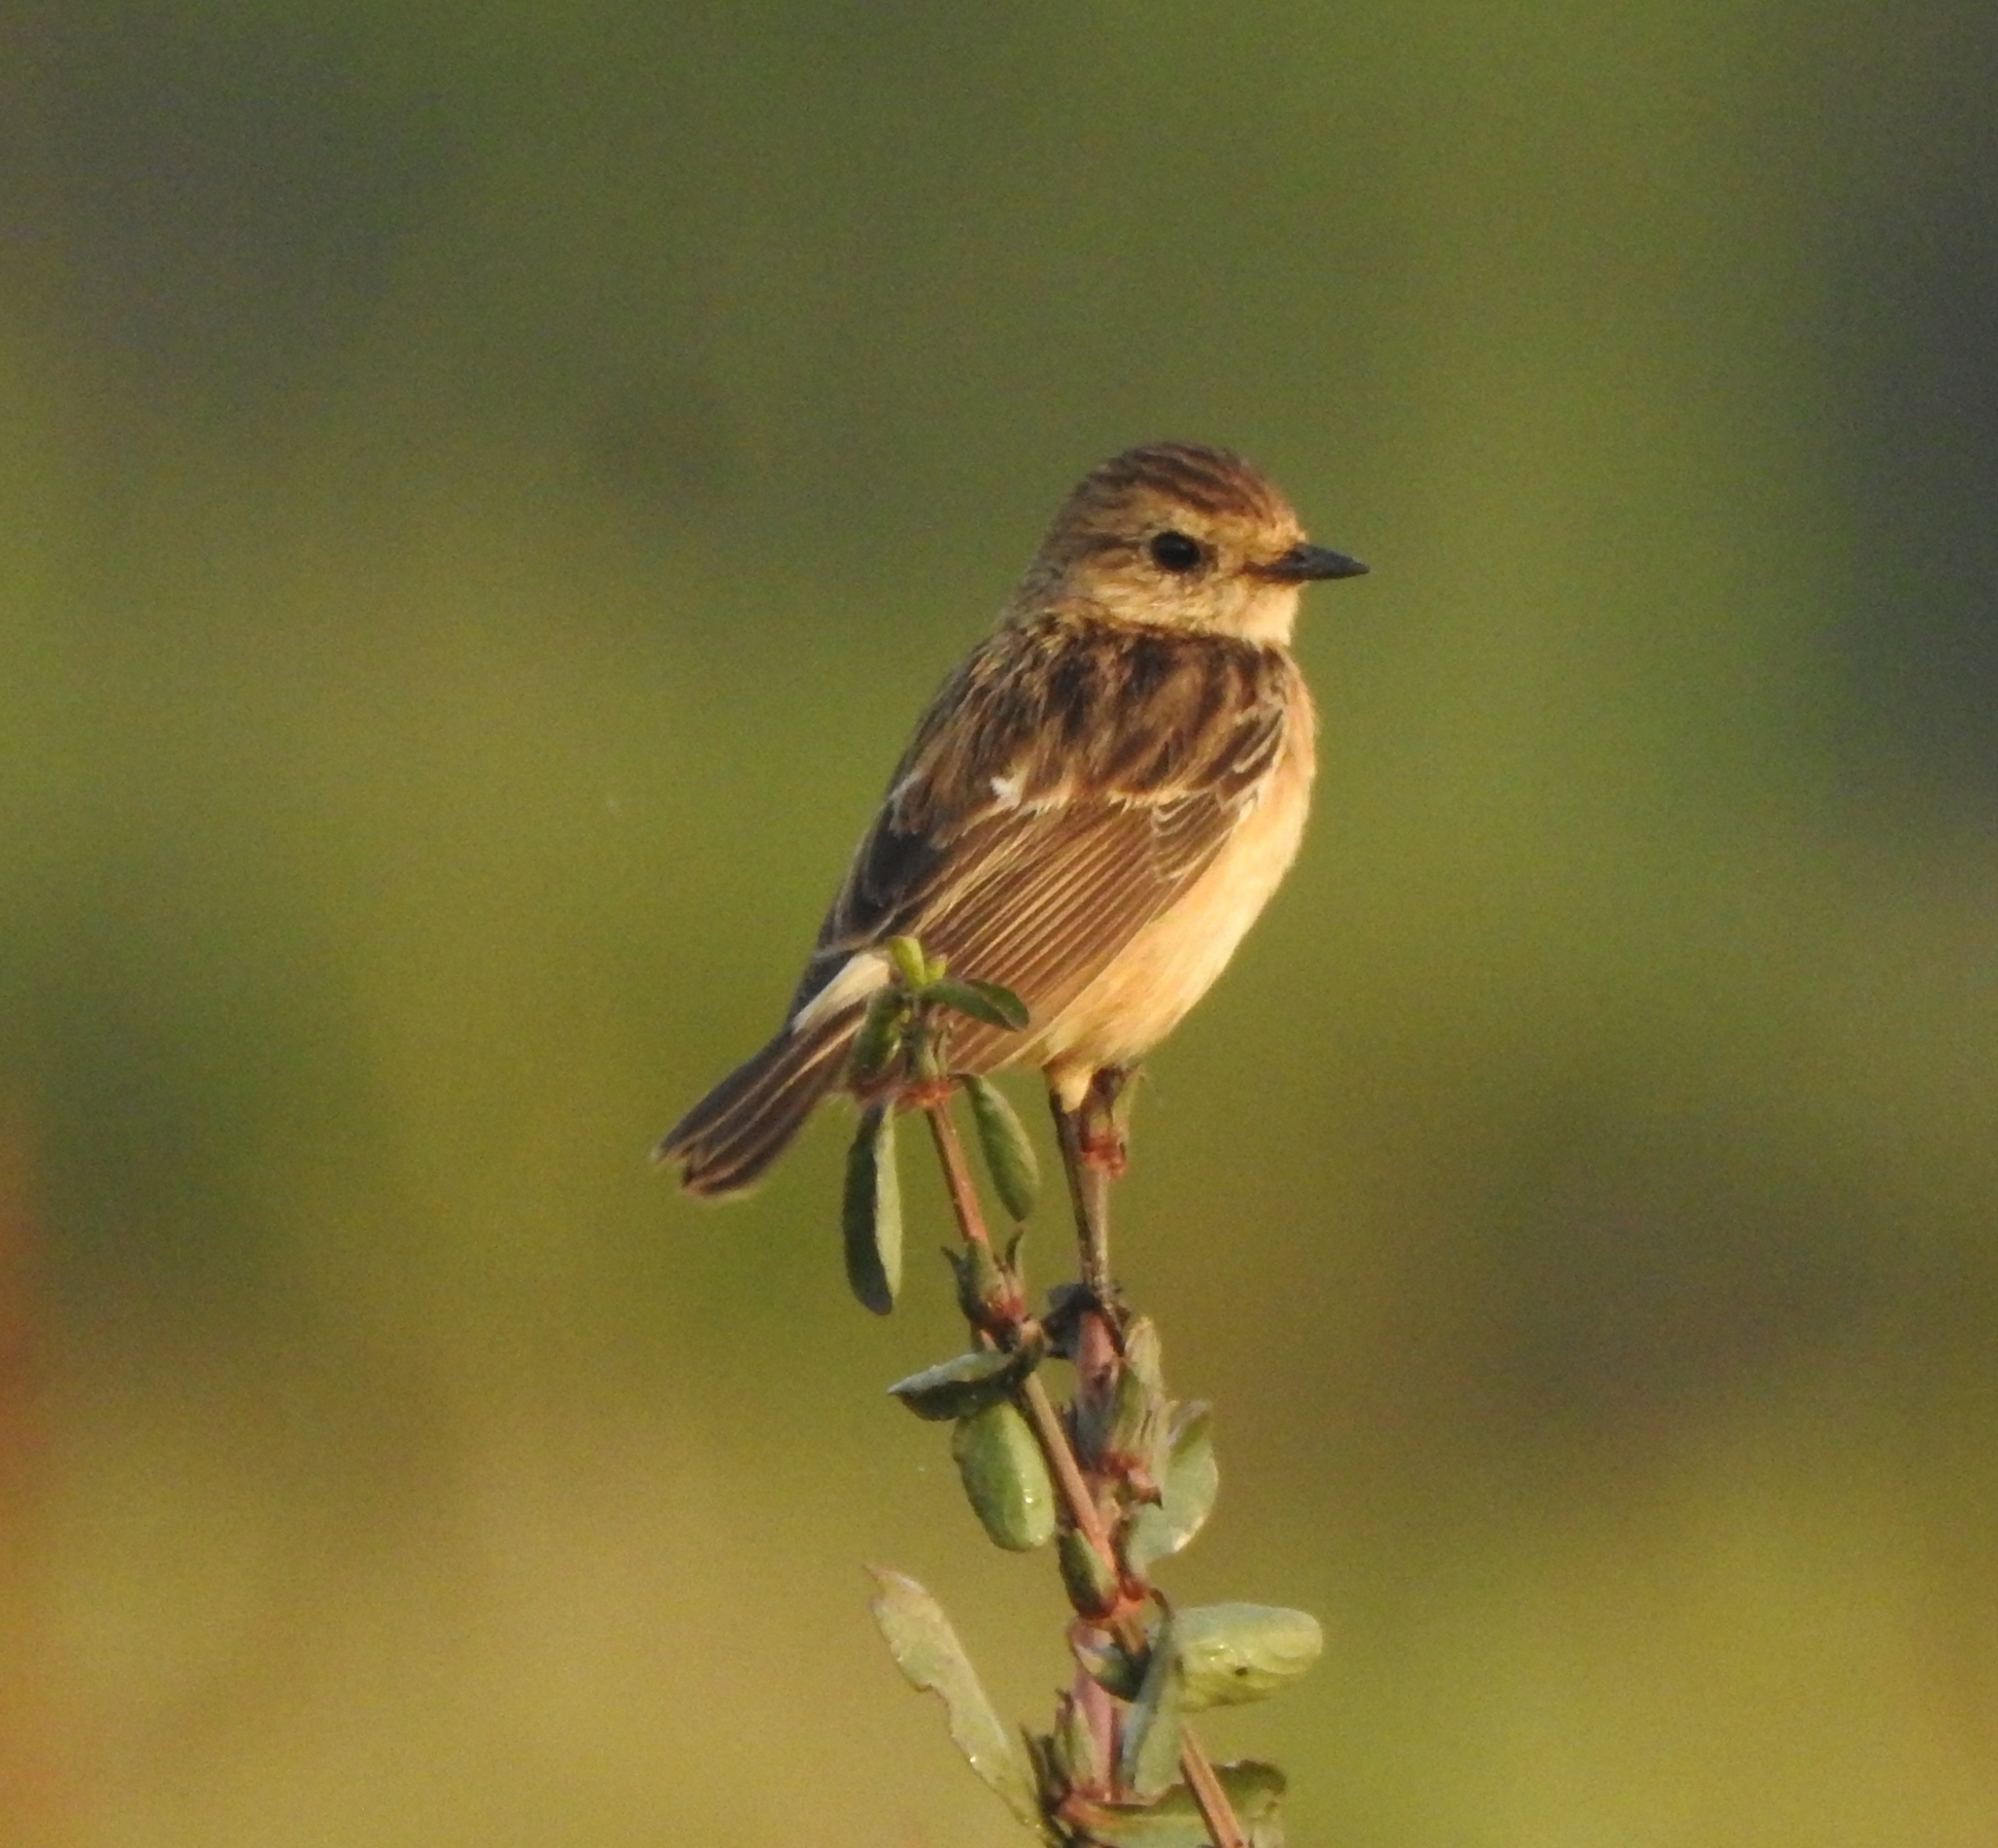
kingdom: Animalia
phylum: Chordata
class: Aves
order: Passeriformes
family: Muscicapidae
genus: Saxicola
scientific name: Saxicola maurus
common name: Siberian stonechat
